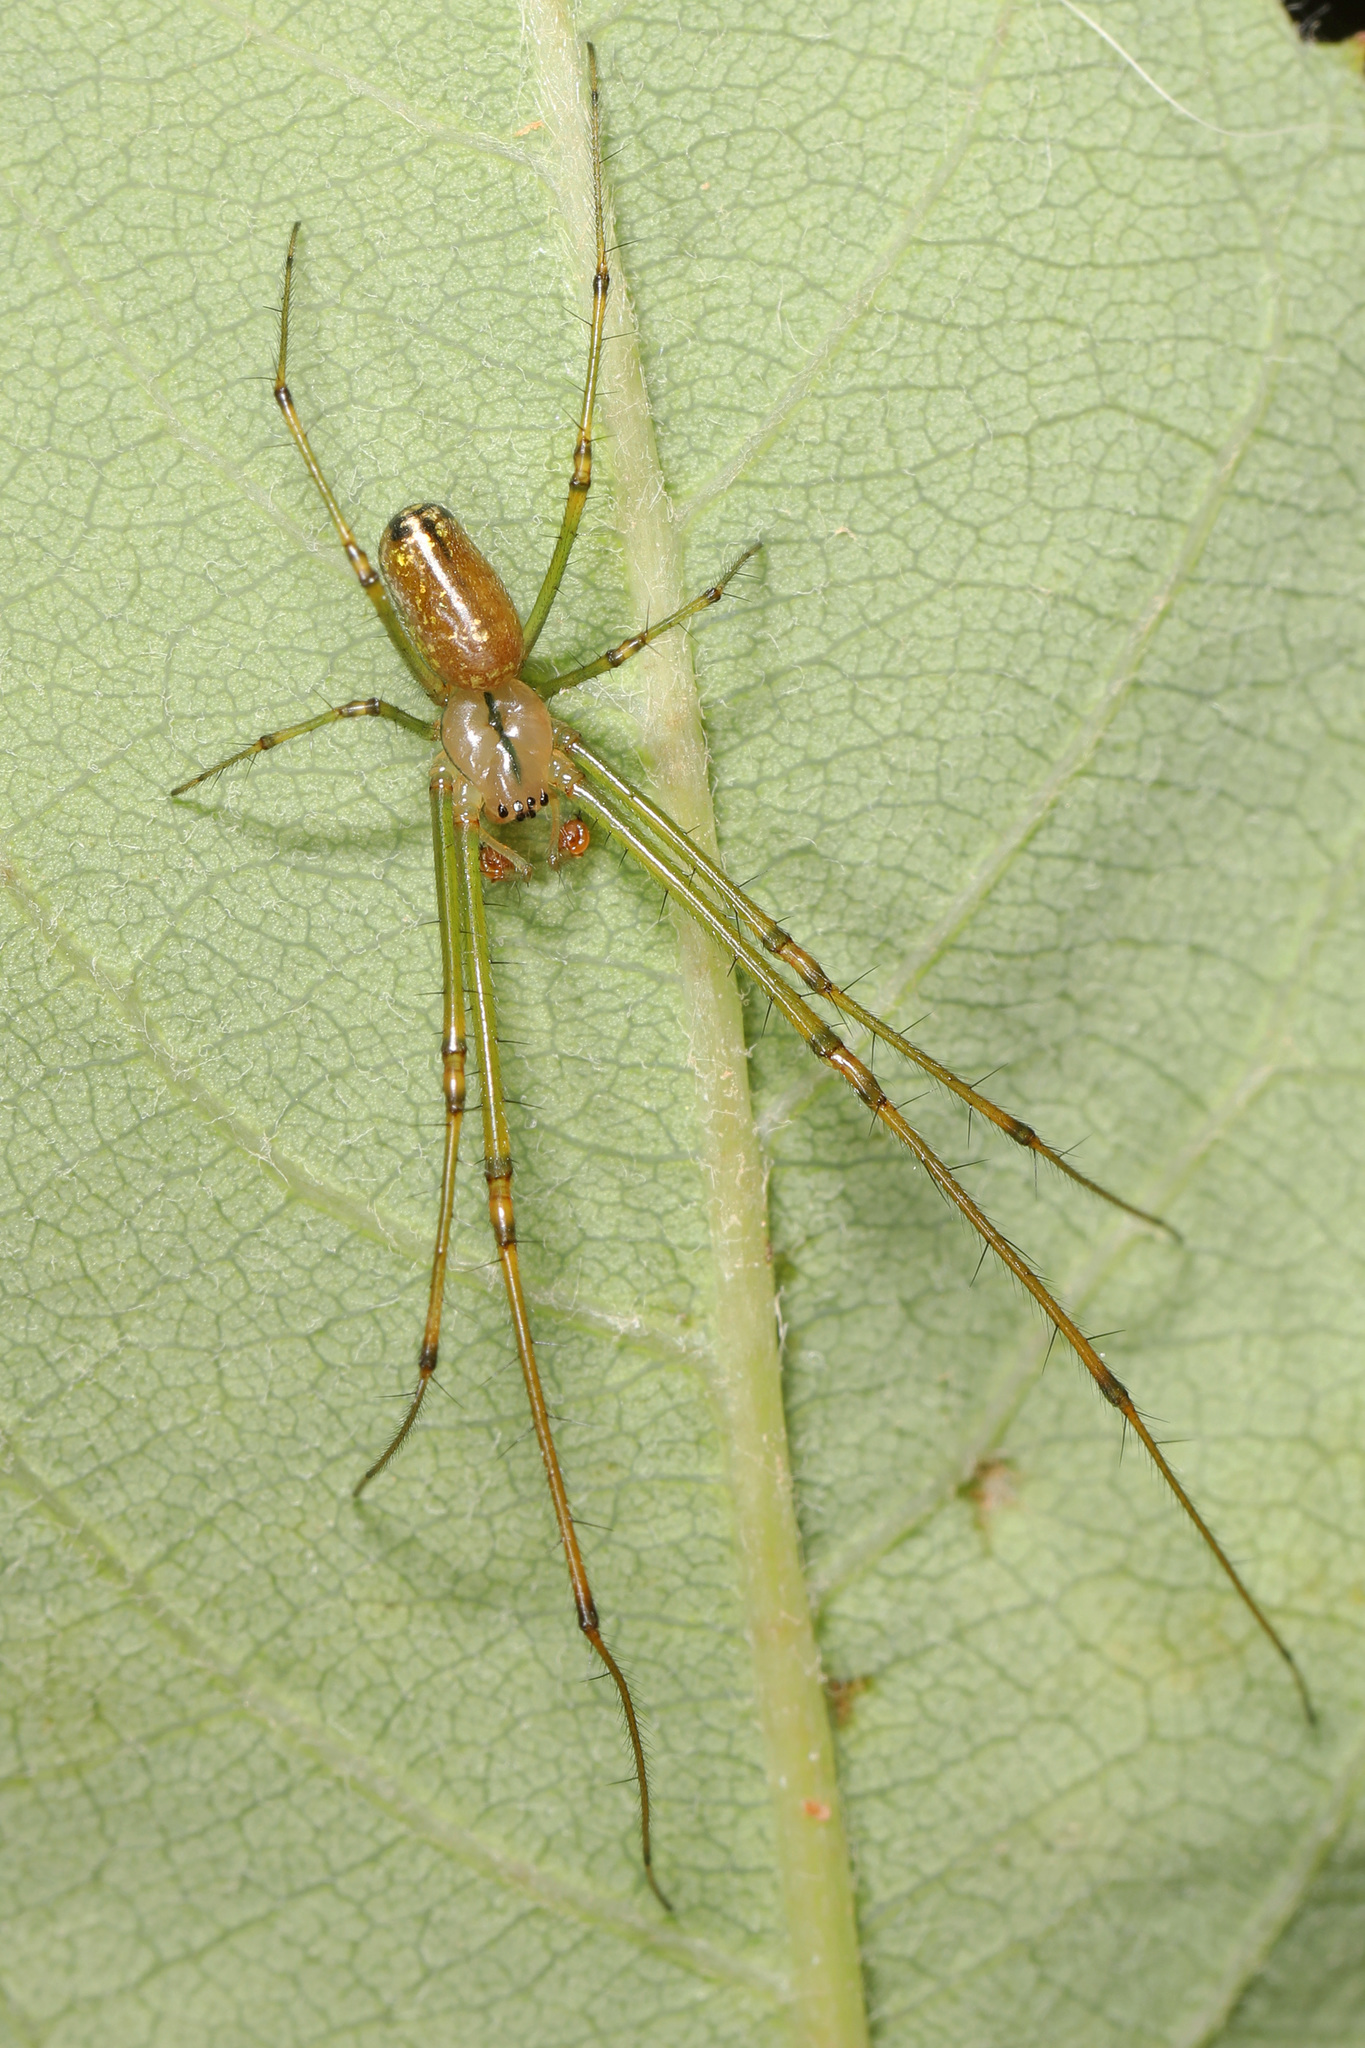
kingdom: Animalia
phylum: Arthropoda
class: Arachnida
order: Araneae
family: Tetragnathidae
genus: Leucauge
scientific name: Leucauge venusta
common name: Longjawed orb weavers
